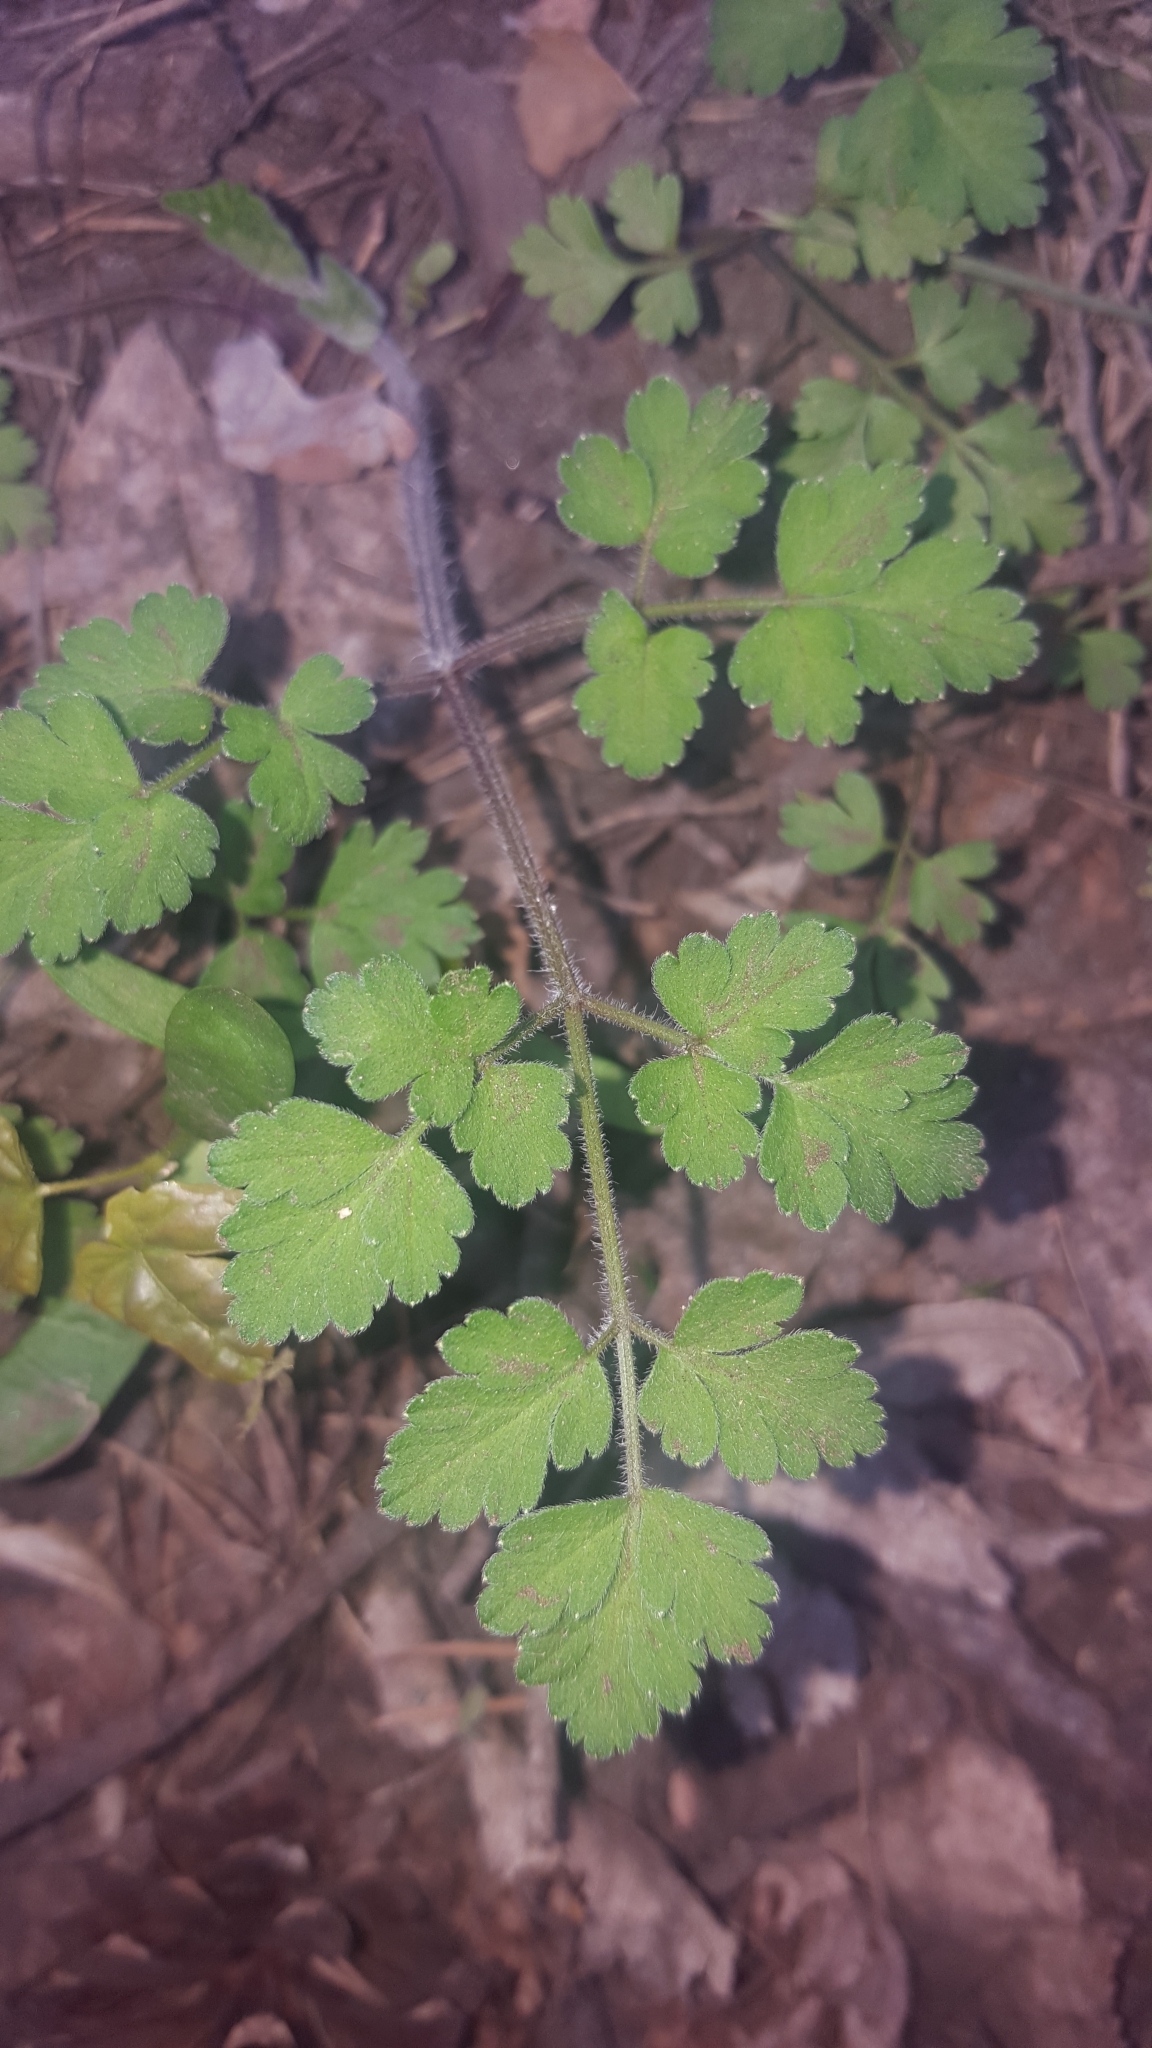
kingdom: Plantae
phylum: Tracheophyta
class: Magnoliopsida
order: Apiales
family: Apiaceae
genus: Chaerophyllum
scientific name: Chaerophyllum temulum
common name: Rough chervil
